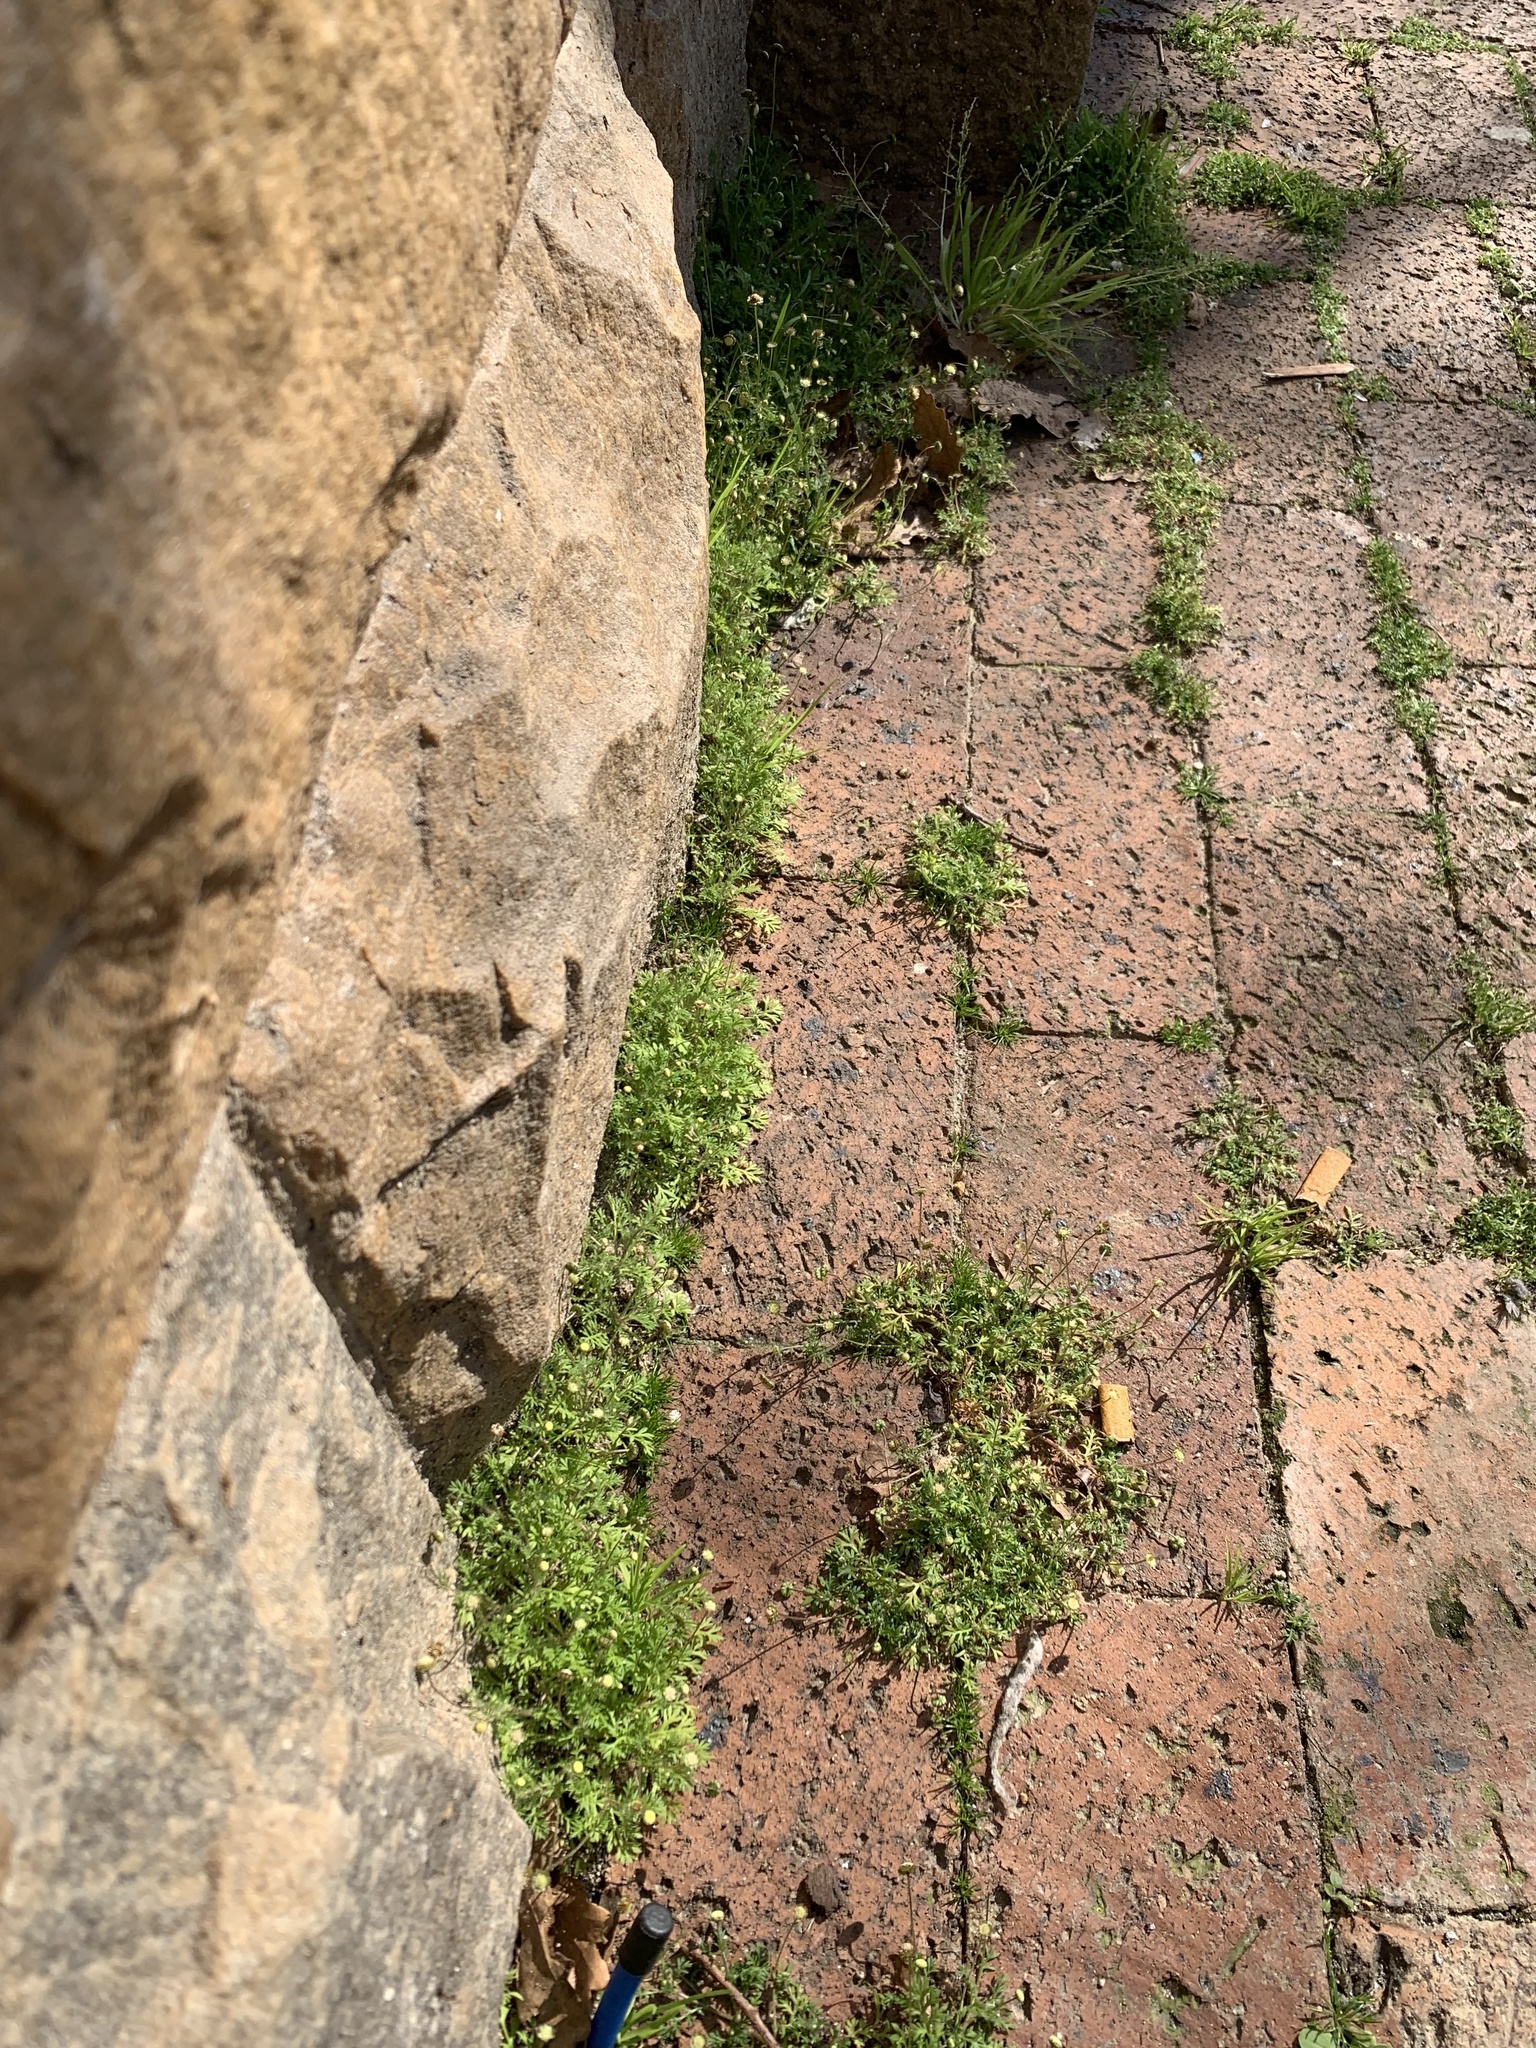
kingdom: Plantae
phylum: Tracheophyta
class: Magnoliopsida
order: Asterales
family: Asteraceae
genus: Cotula
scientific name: Cotula australis
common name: Australian waterbuttons
